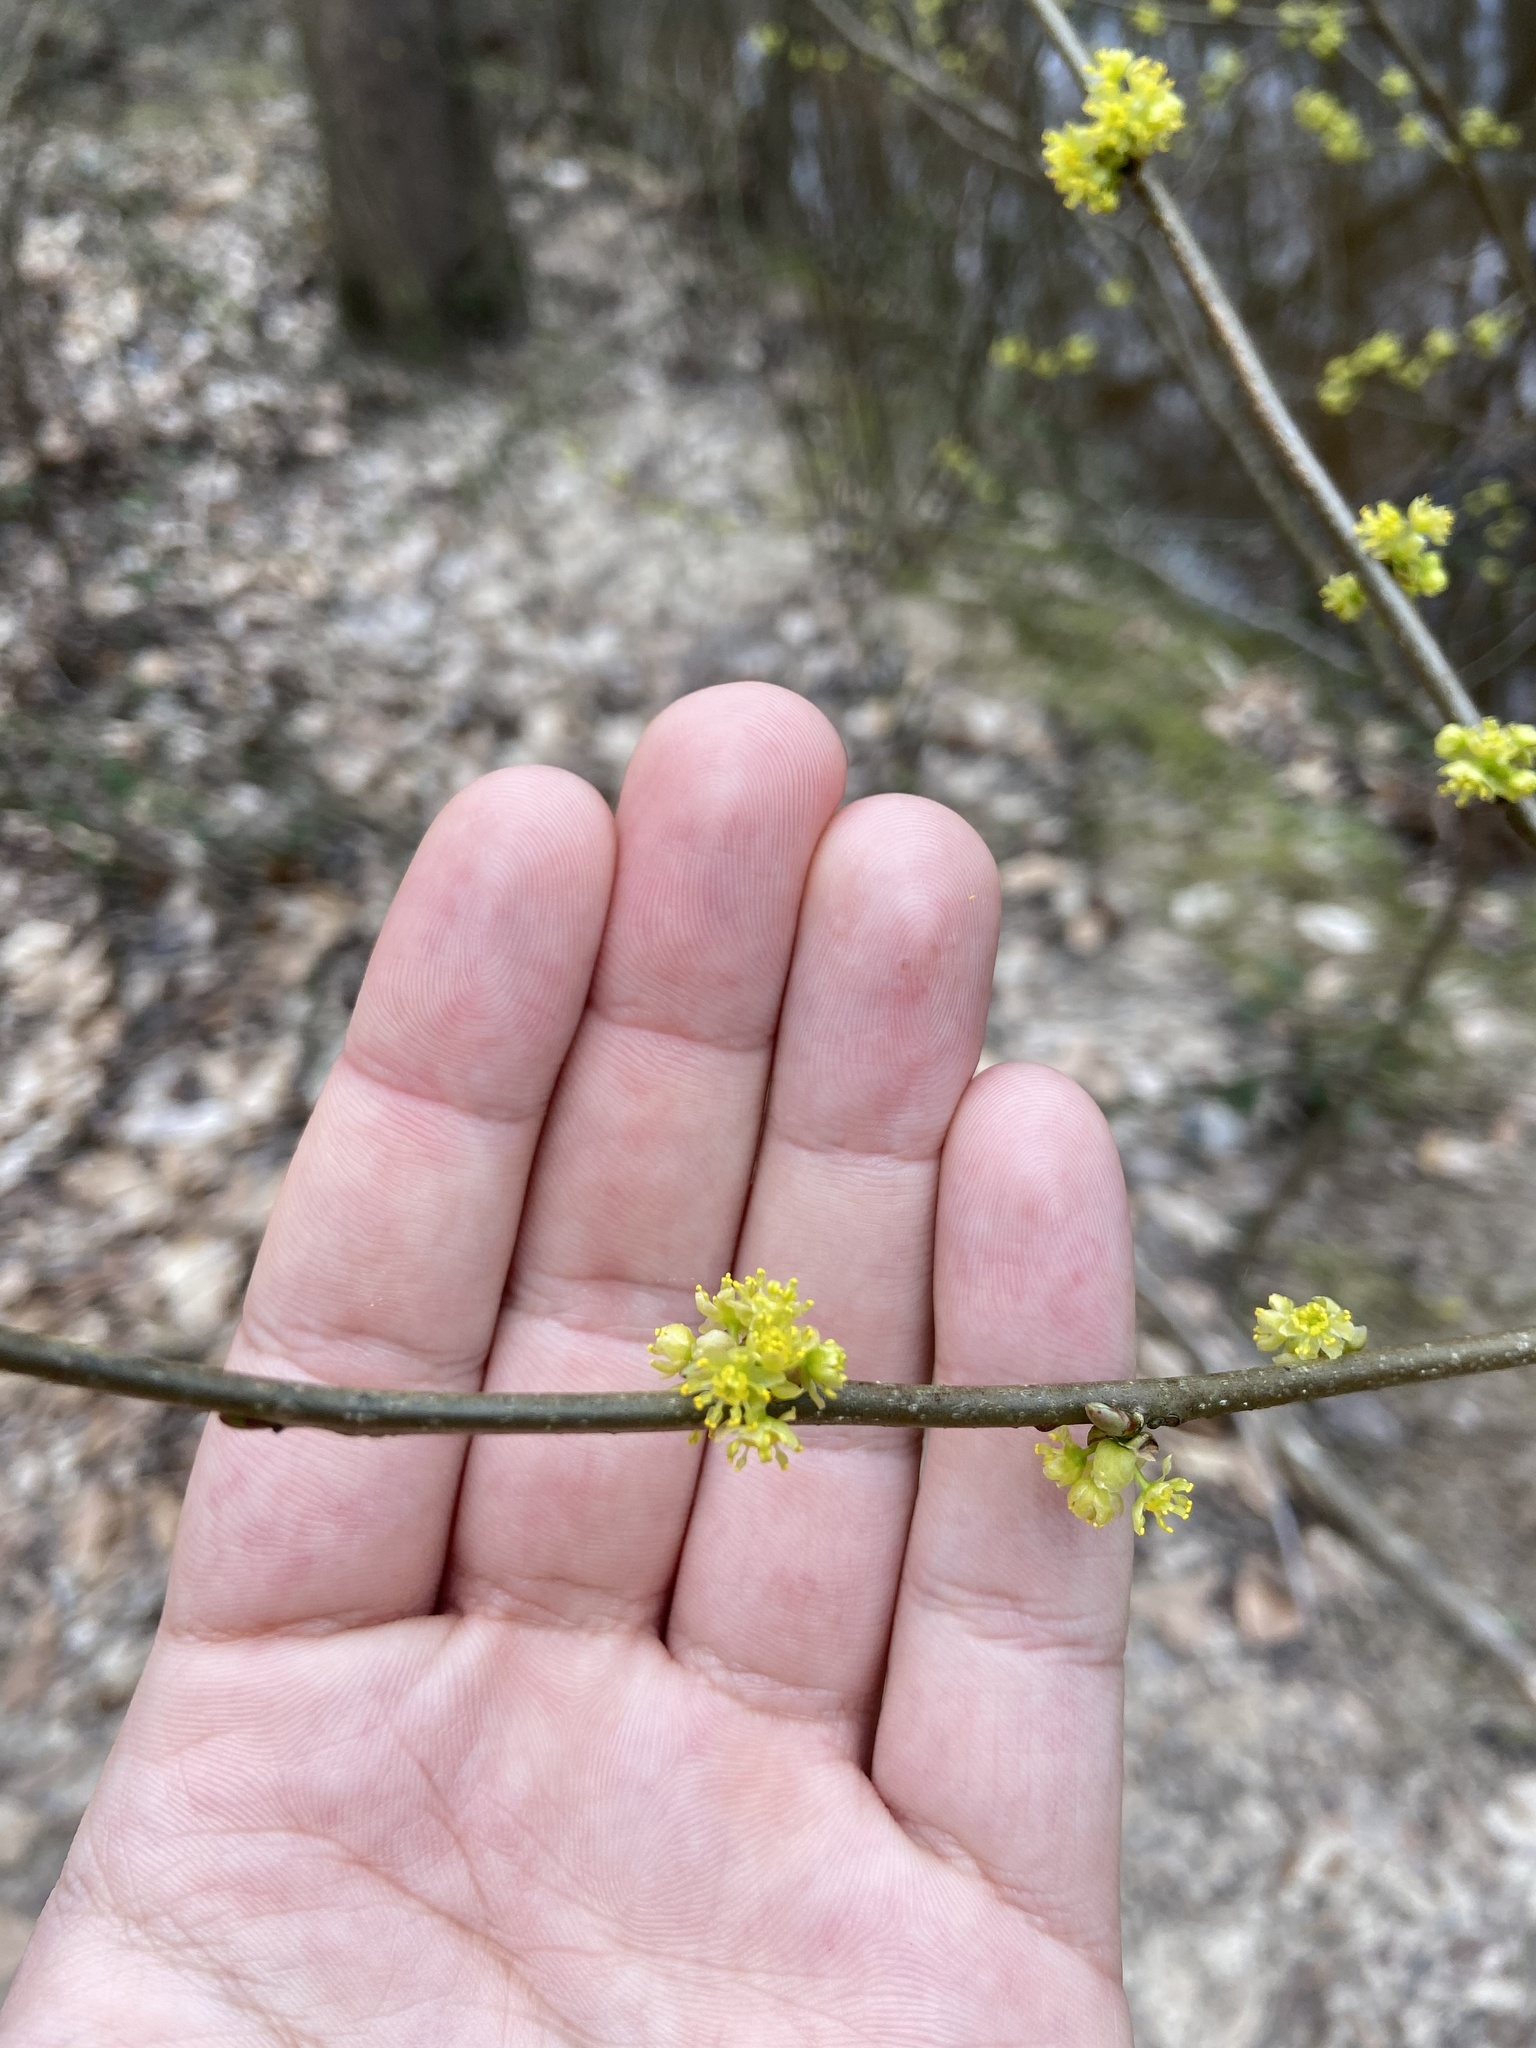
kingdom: Plantae
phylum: Tracheophyta
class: Magnoliopsida
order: Laurales
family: Lauraceae
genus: Lindera
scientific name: Lindera benzoin
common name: Spicebush
